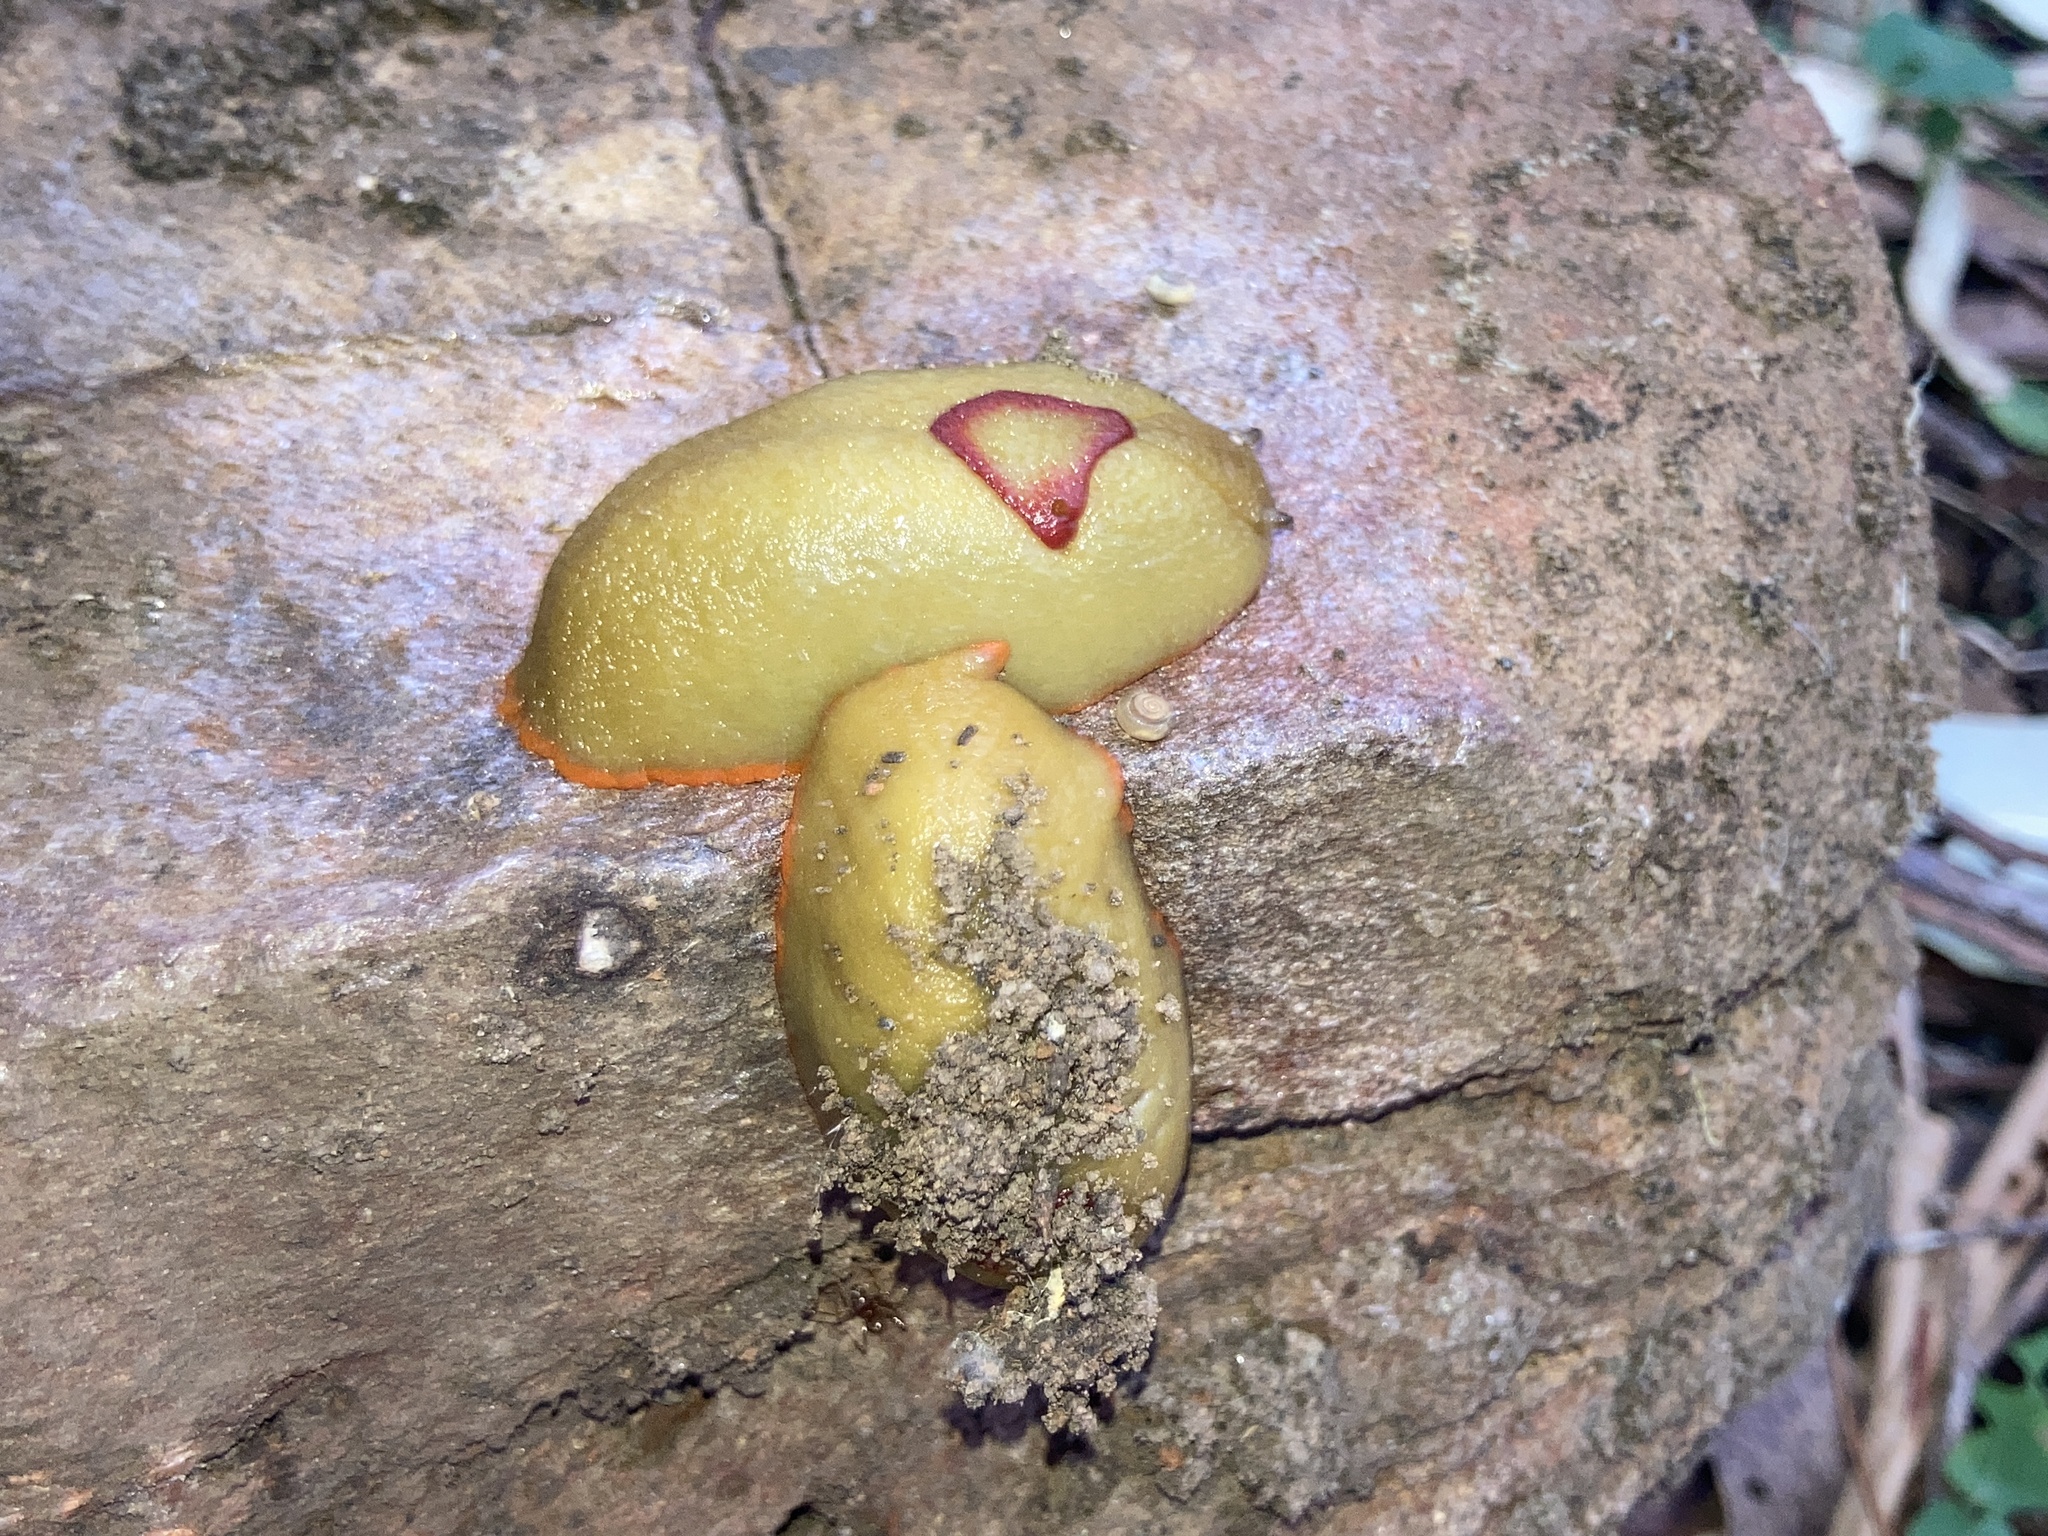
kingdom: Animalia
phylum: Mollusca
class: Gastropoda
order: Stylommatophora
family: Athoracophoridae
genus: Triboniophorus
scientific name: Triboniophorus graeffei
